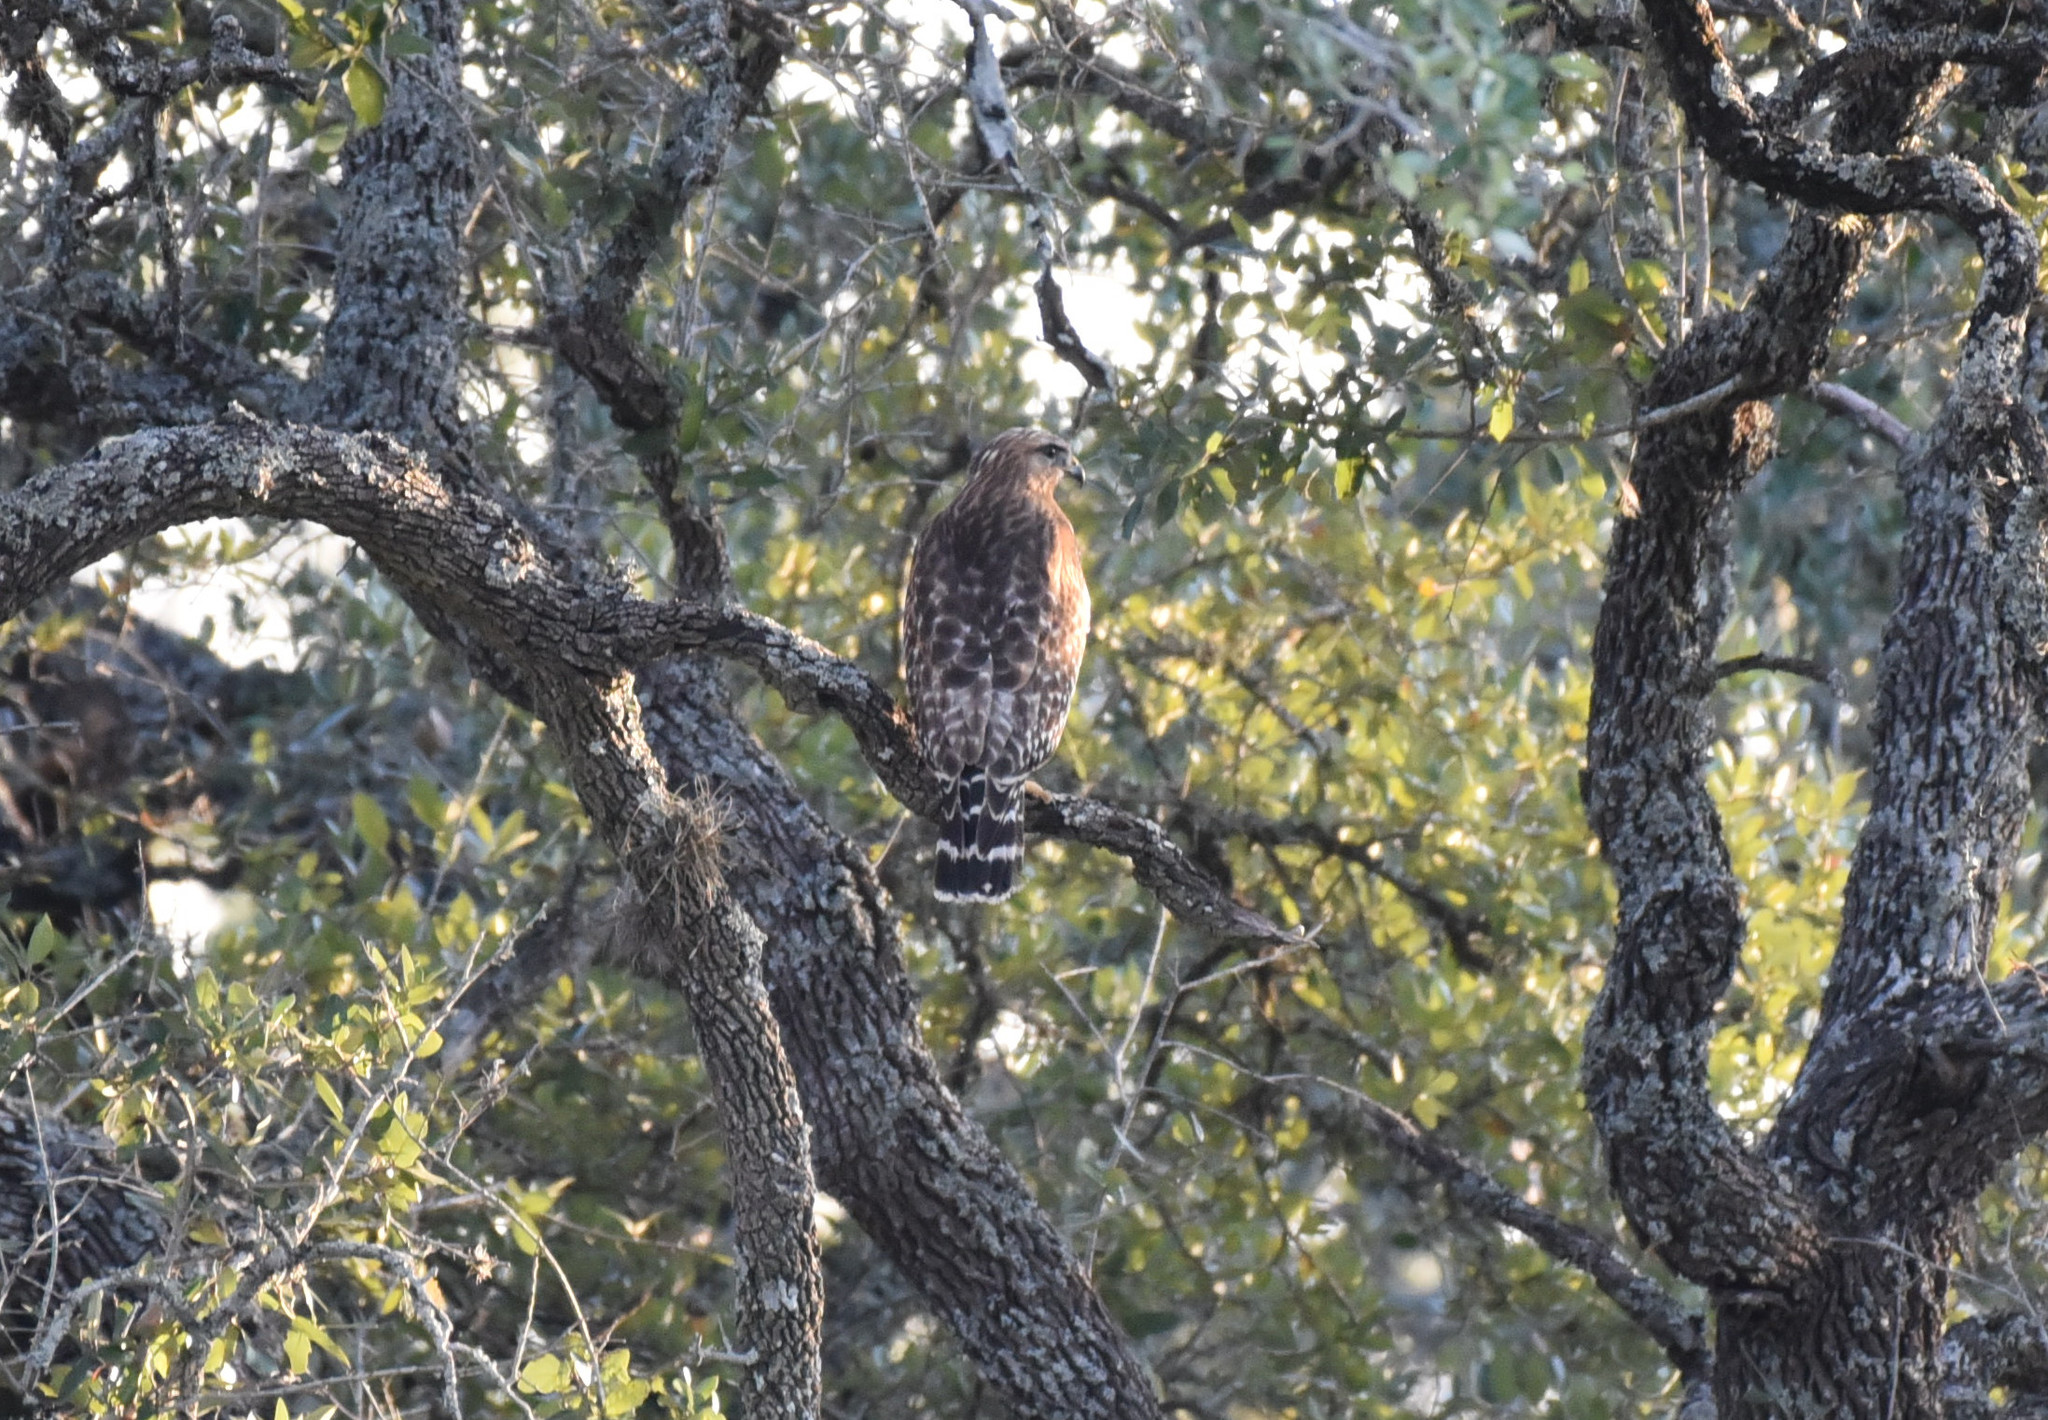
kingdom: Animalia
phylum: Chordata
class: Aves
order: Accipitriformes
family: Accipitridae
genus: Buteo
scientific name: Buteo lineatus
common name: Red-shouldered hawk
